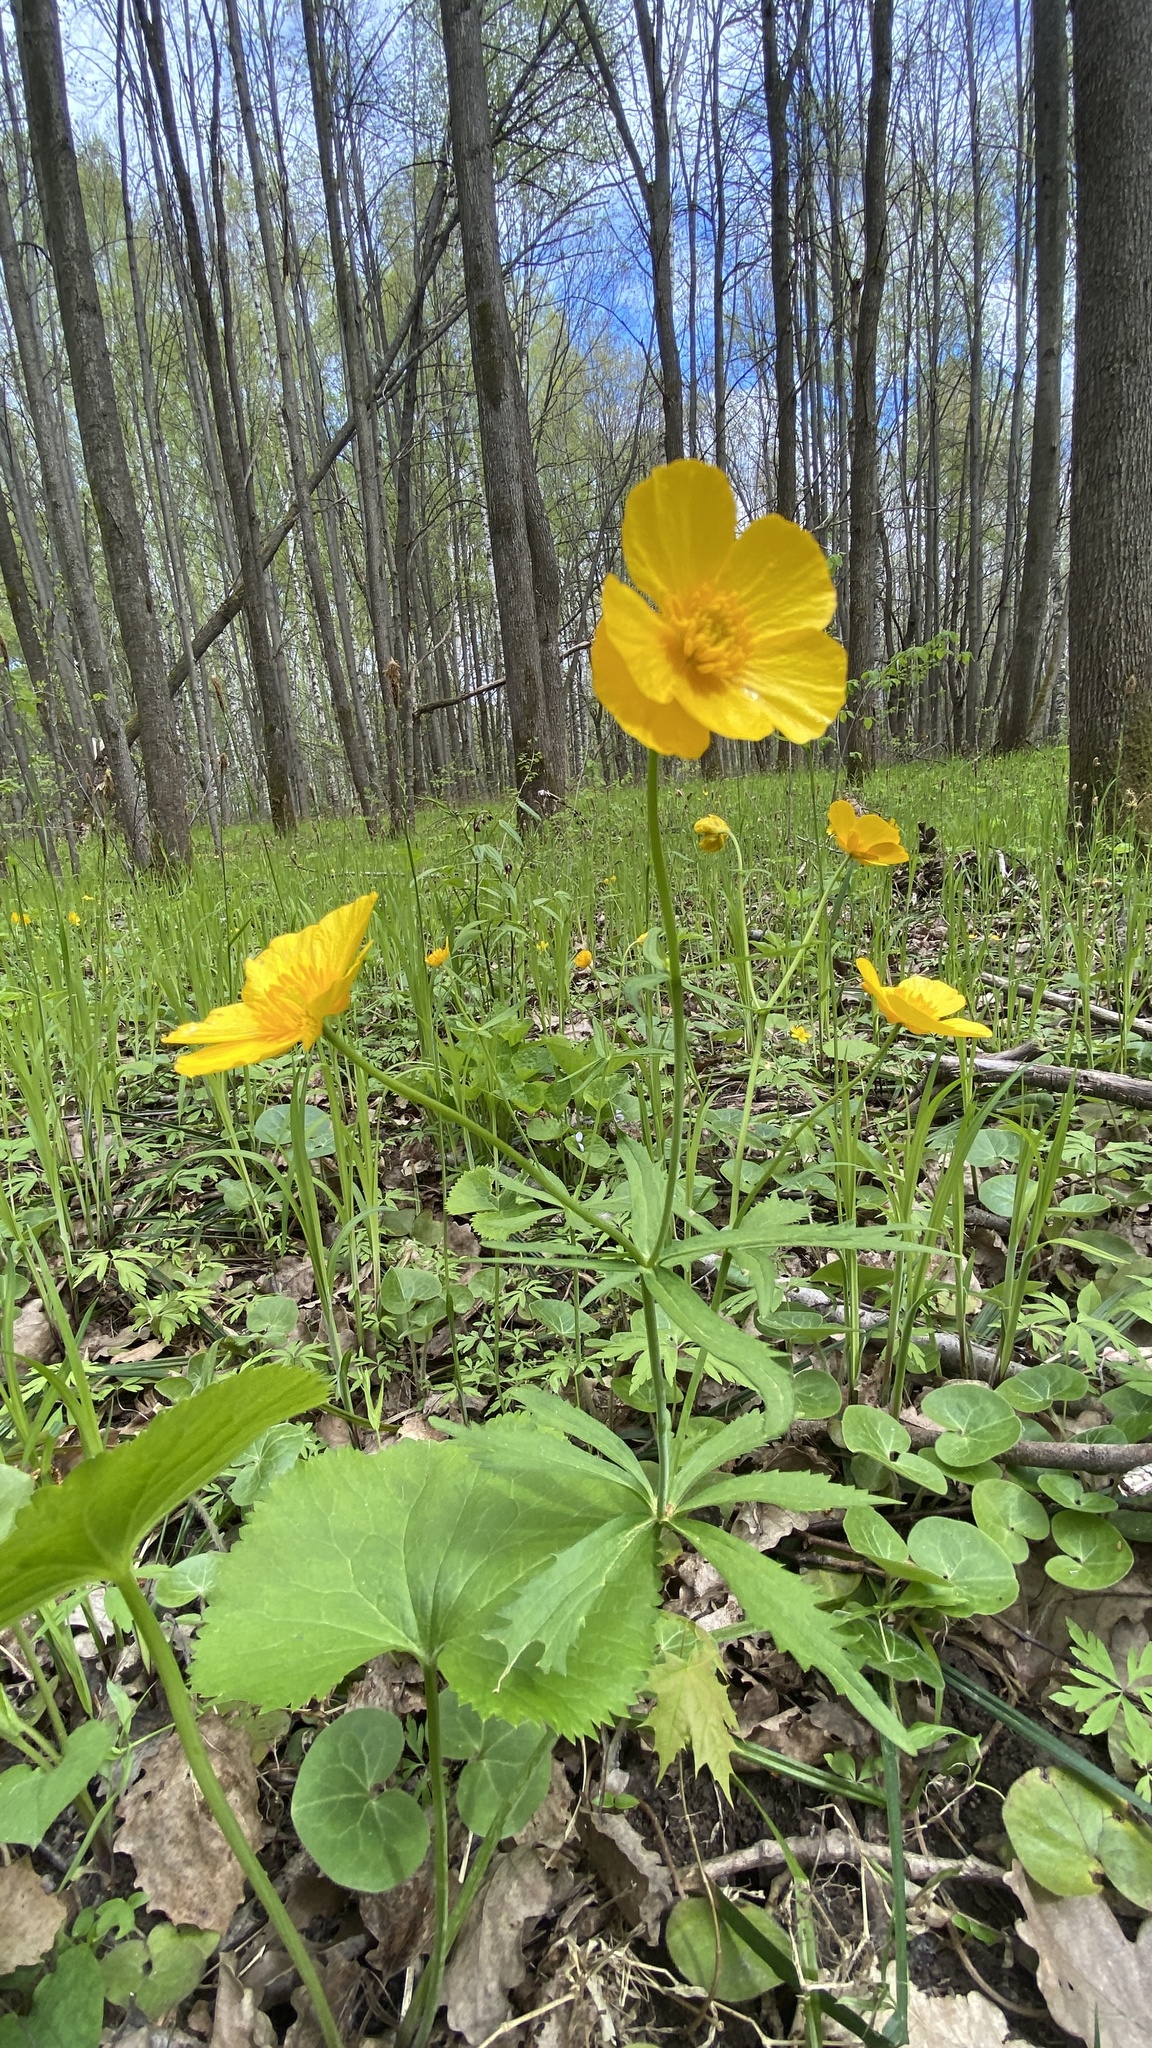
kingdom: Plantae
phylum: Tracheophyta
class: Magnoliopsida
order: Ranunculales
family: Ranunculaceae
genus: Ranunculus
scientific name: Ranunculus cassubicus
